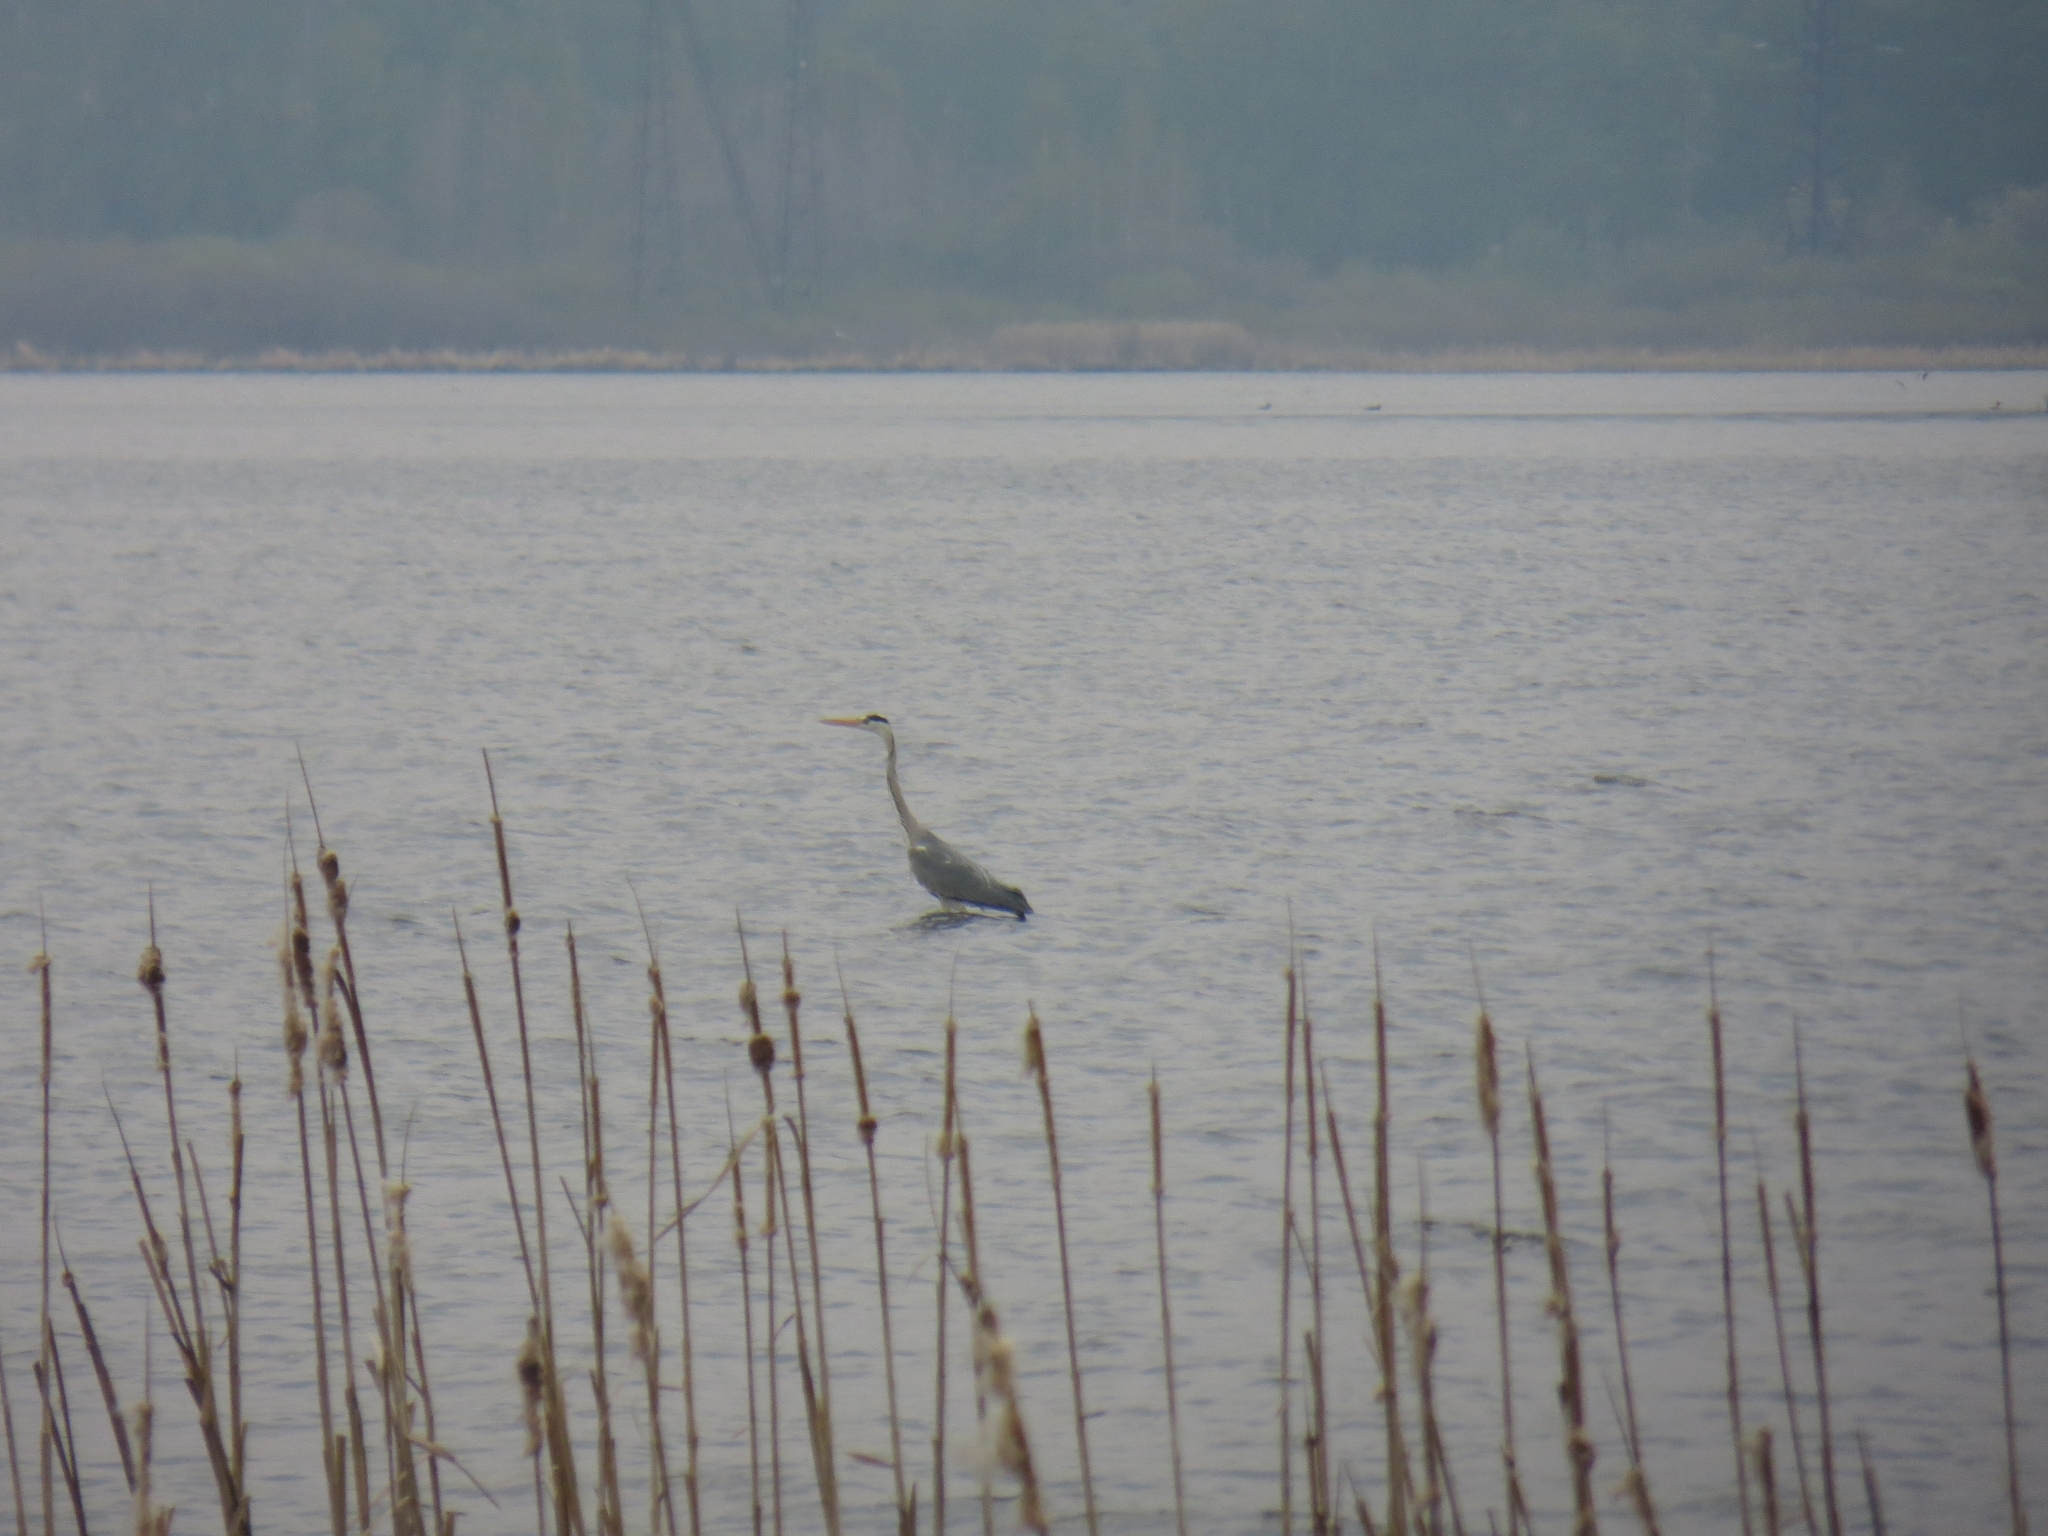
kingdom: Animalia
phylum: Chordata
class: Aves
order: Pelecaniformes
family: Ardeidae
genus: Ardea
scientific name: Ardea cinerea
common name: Grey heron
